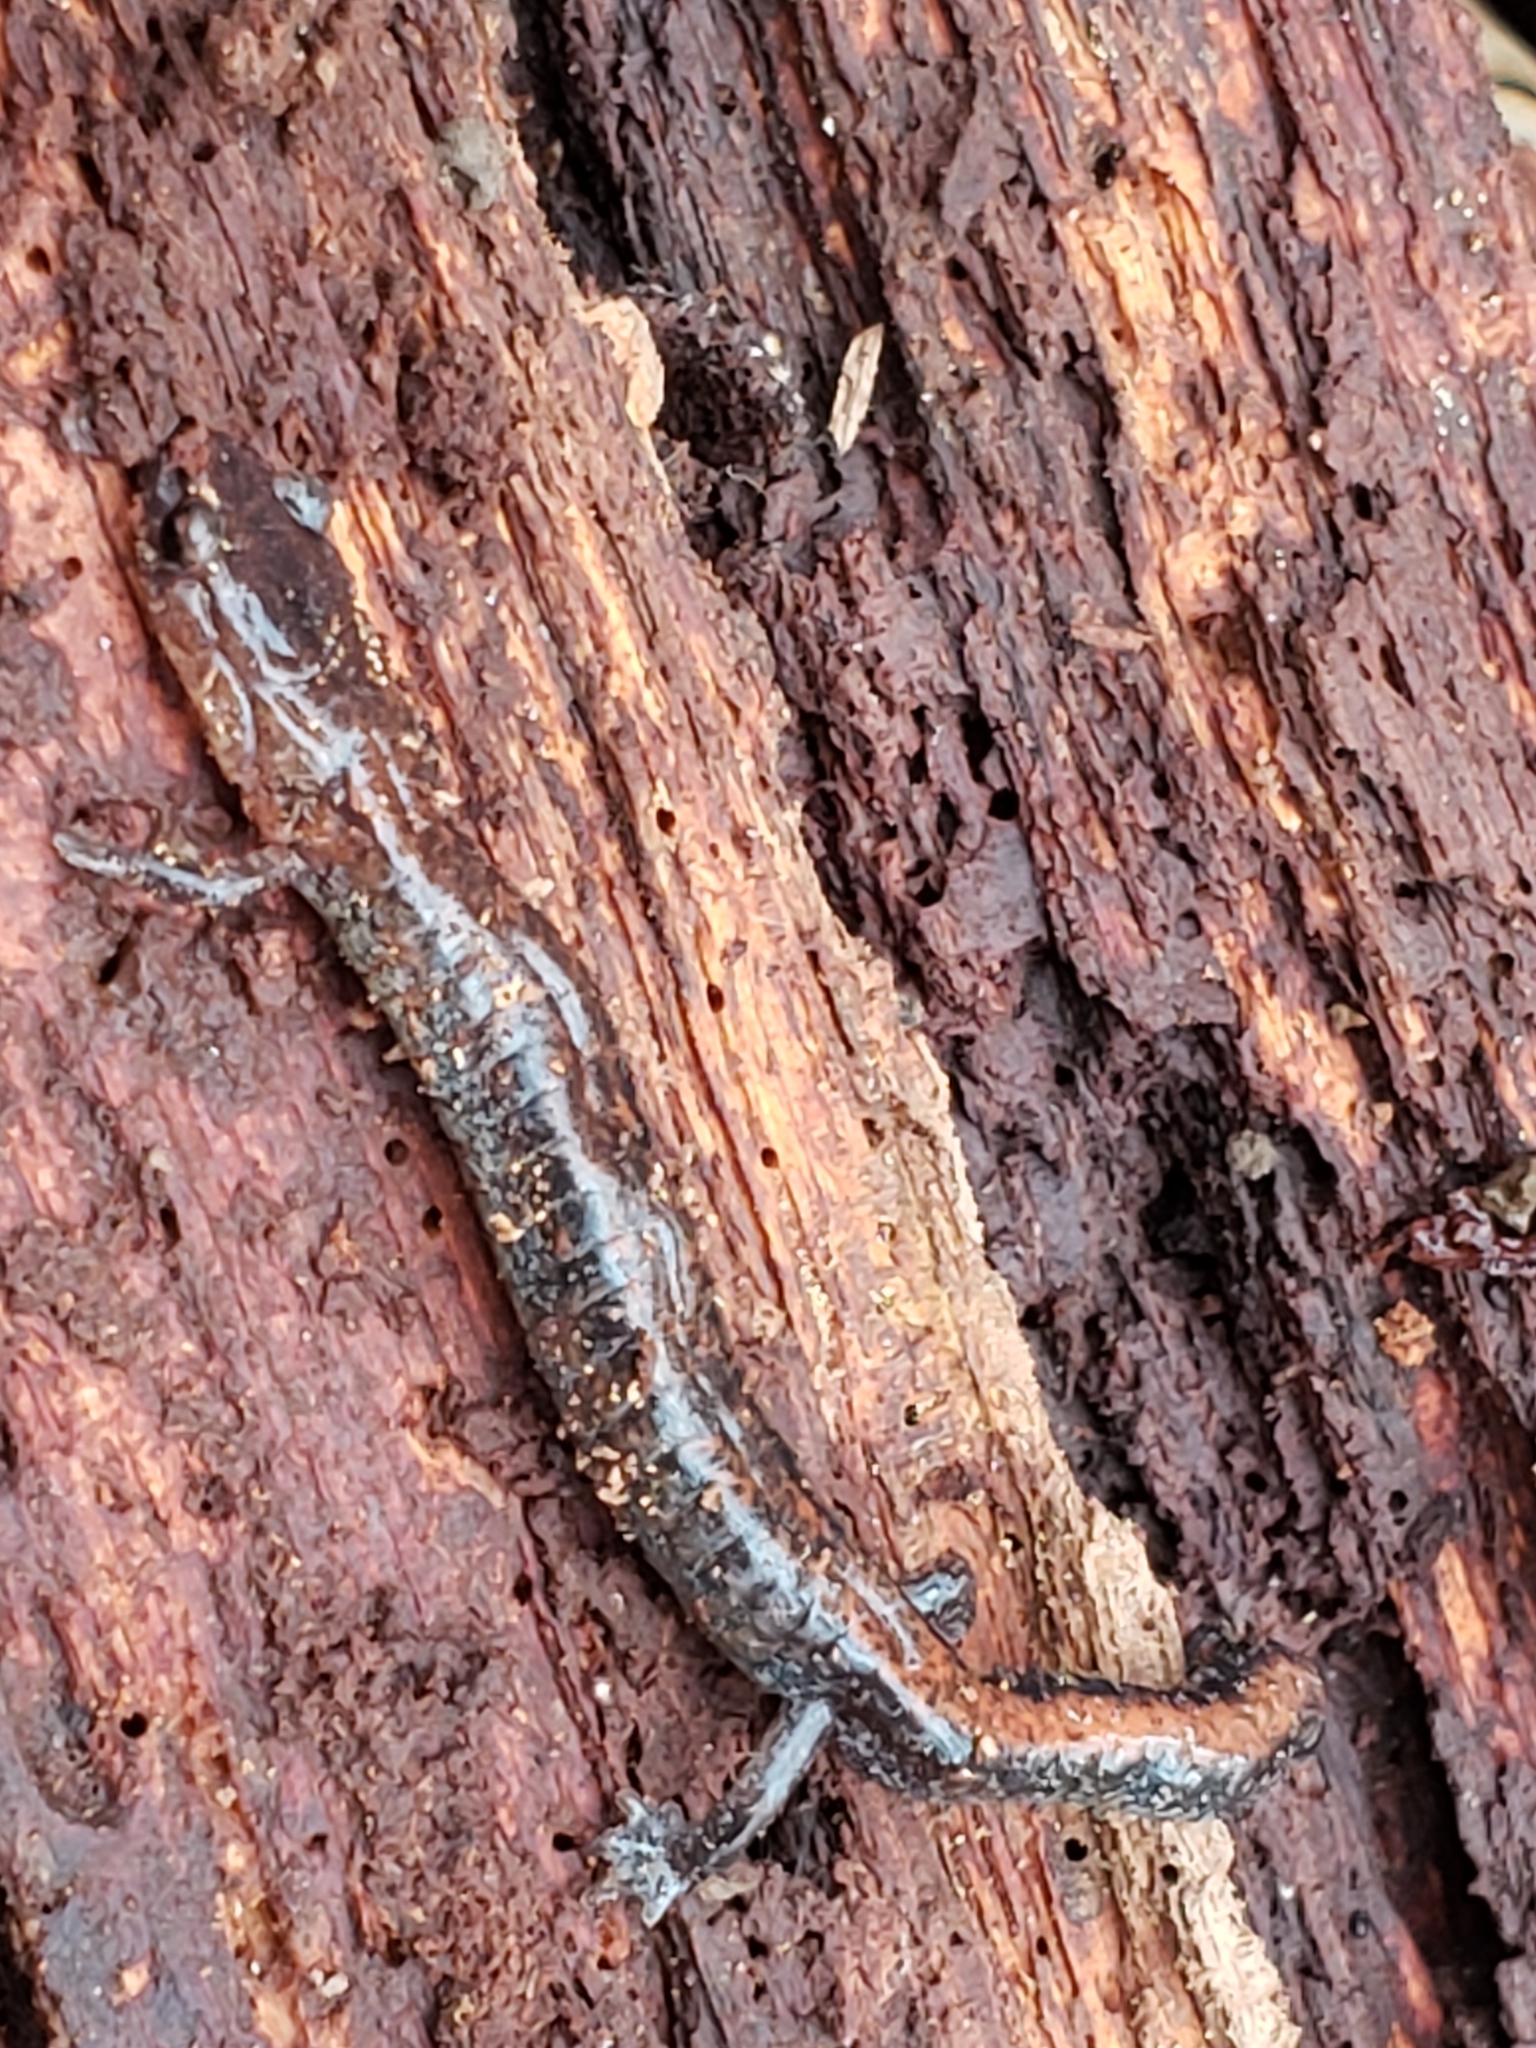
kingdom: Animalia
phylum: Chordata
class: Amphibia
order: Caudata
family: Plethodontidae
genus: Plethodon
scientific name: Plethodon cinereus
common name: Redback salamander
